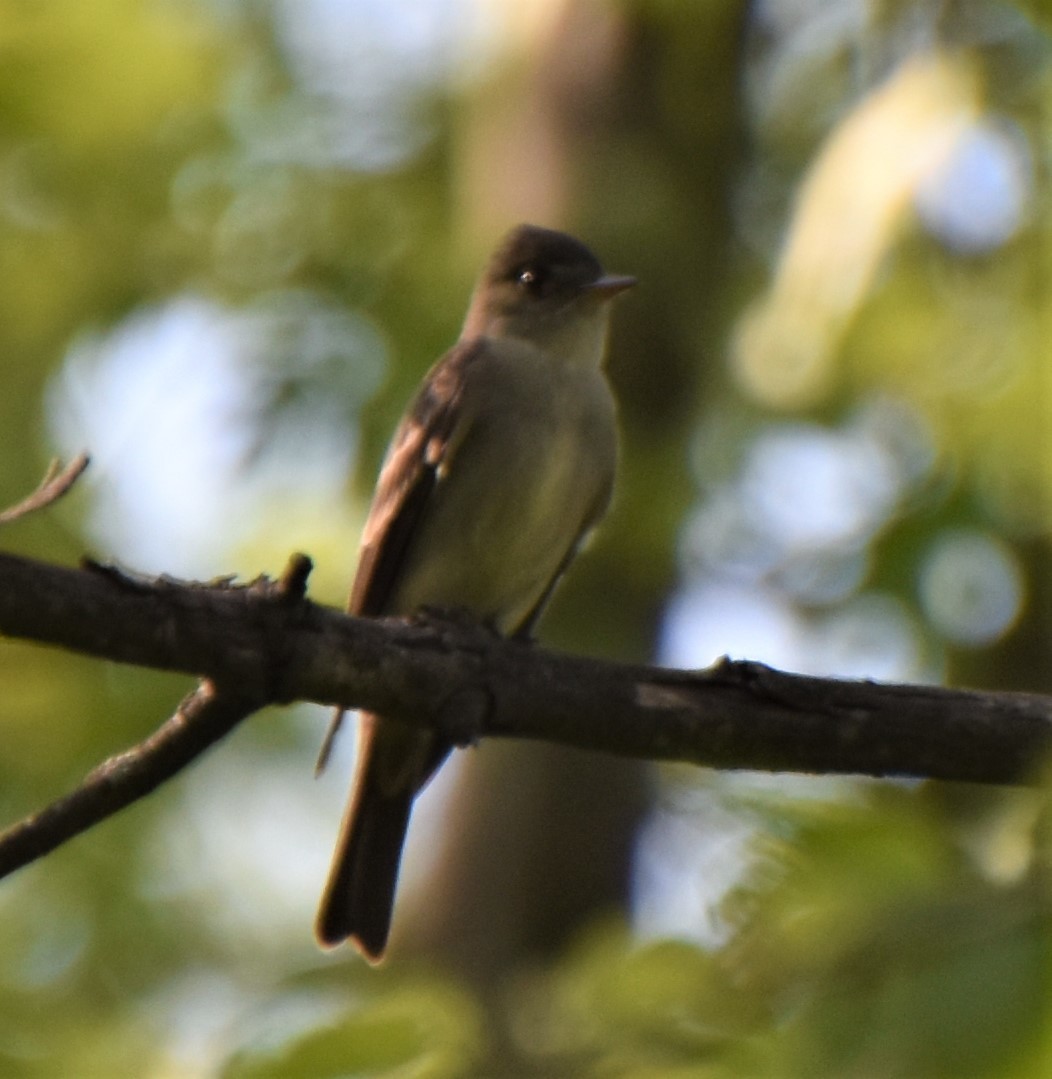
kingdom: Animalia
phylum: Chordata
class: Aves
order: Passeriformes
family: Tyrannidae
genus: Contopus
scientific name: Contopus virens
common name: Eastern wood-pewee
